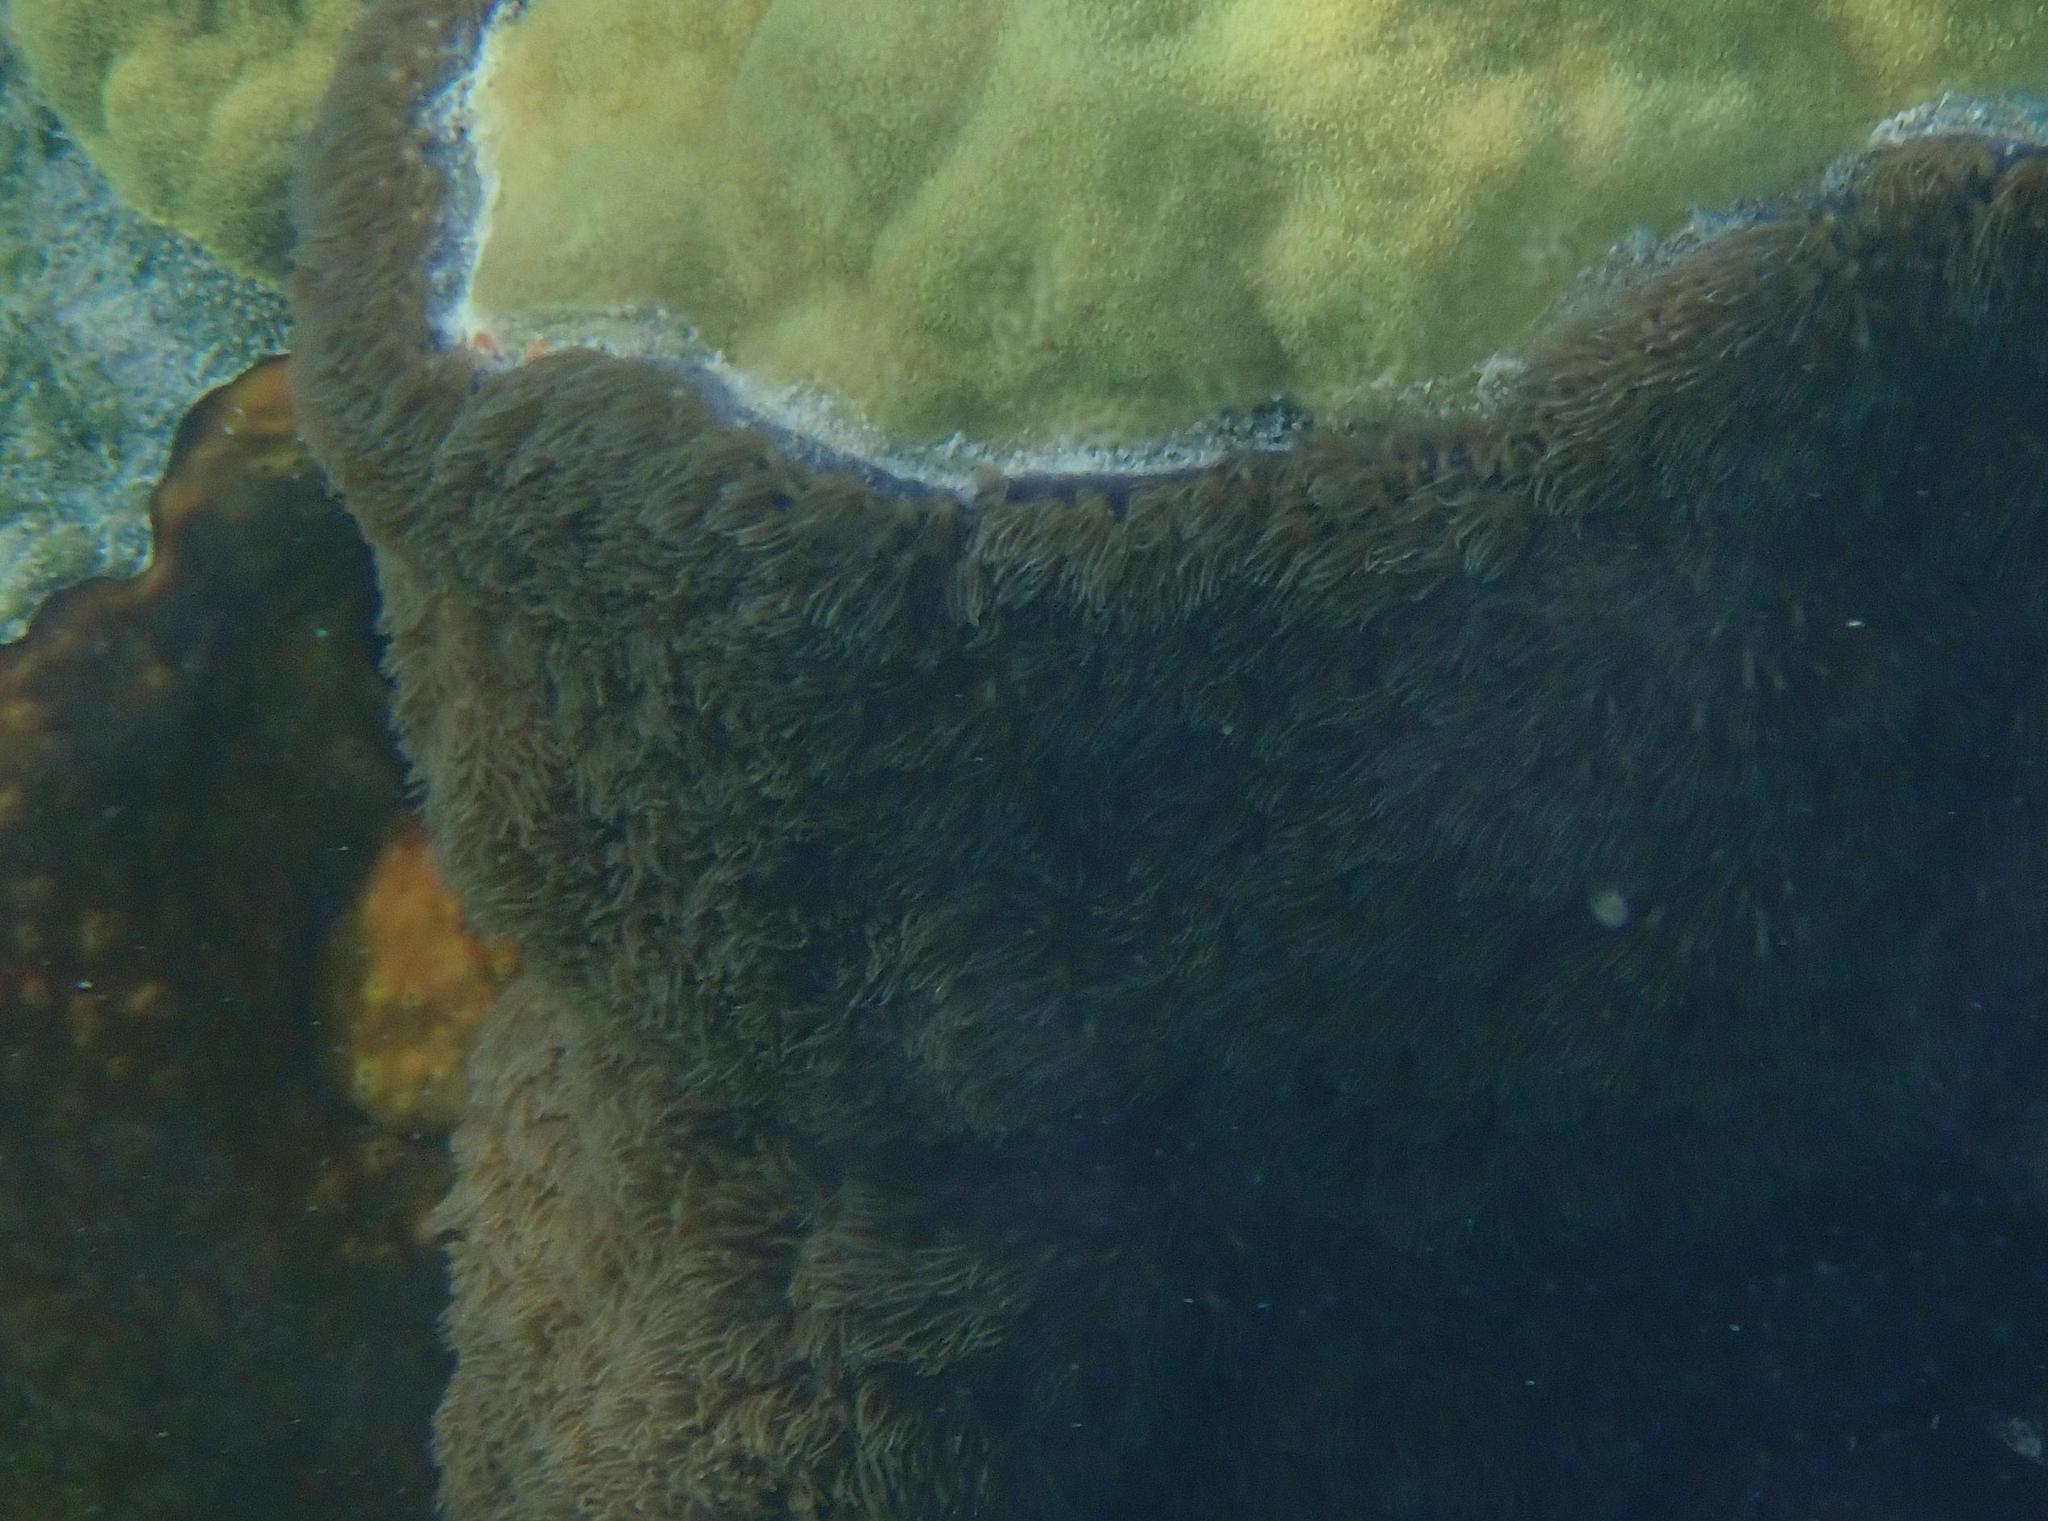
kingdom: Animalia
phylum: Cnidaria
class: Anthozoa
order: Scleralcyonacea
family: Erythropodiidae
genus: Erythropodium
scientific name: Erythropodium caribaeorum
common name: Encrusting gorgonian
